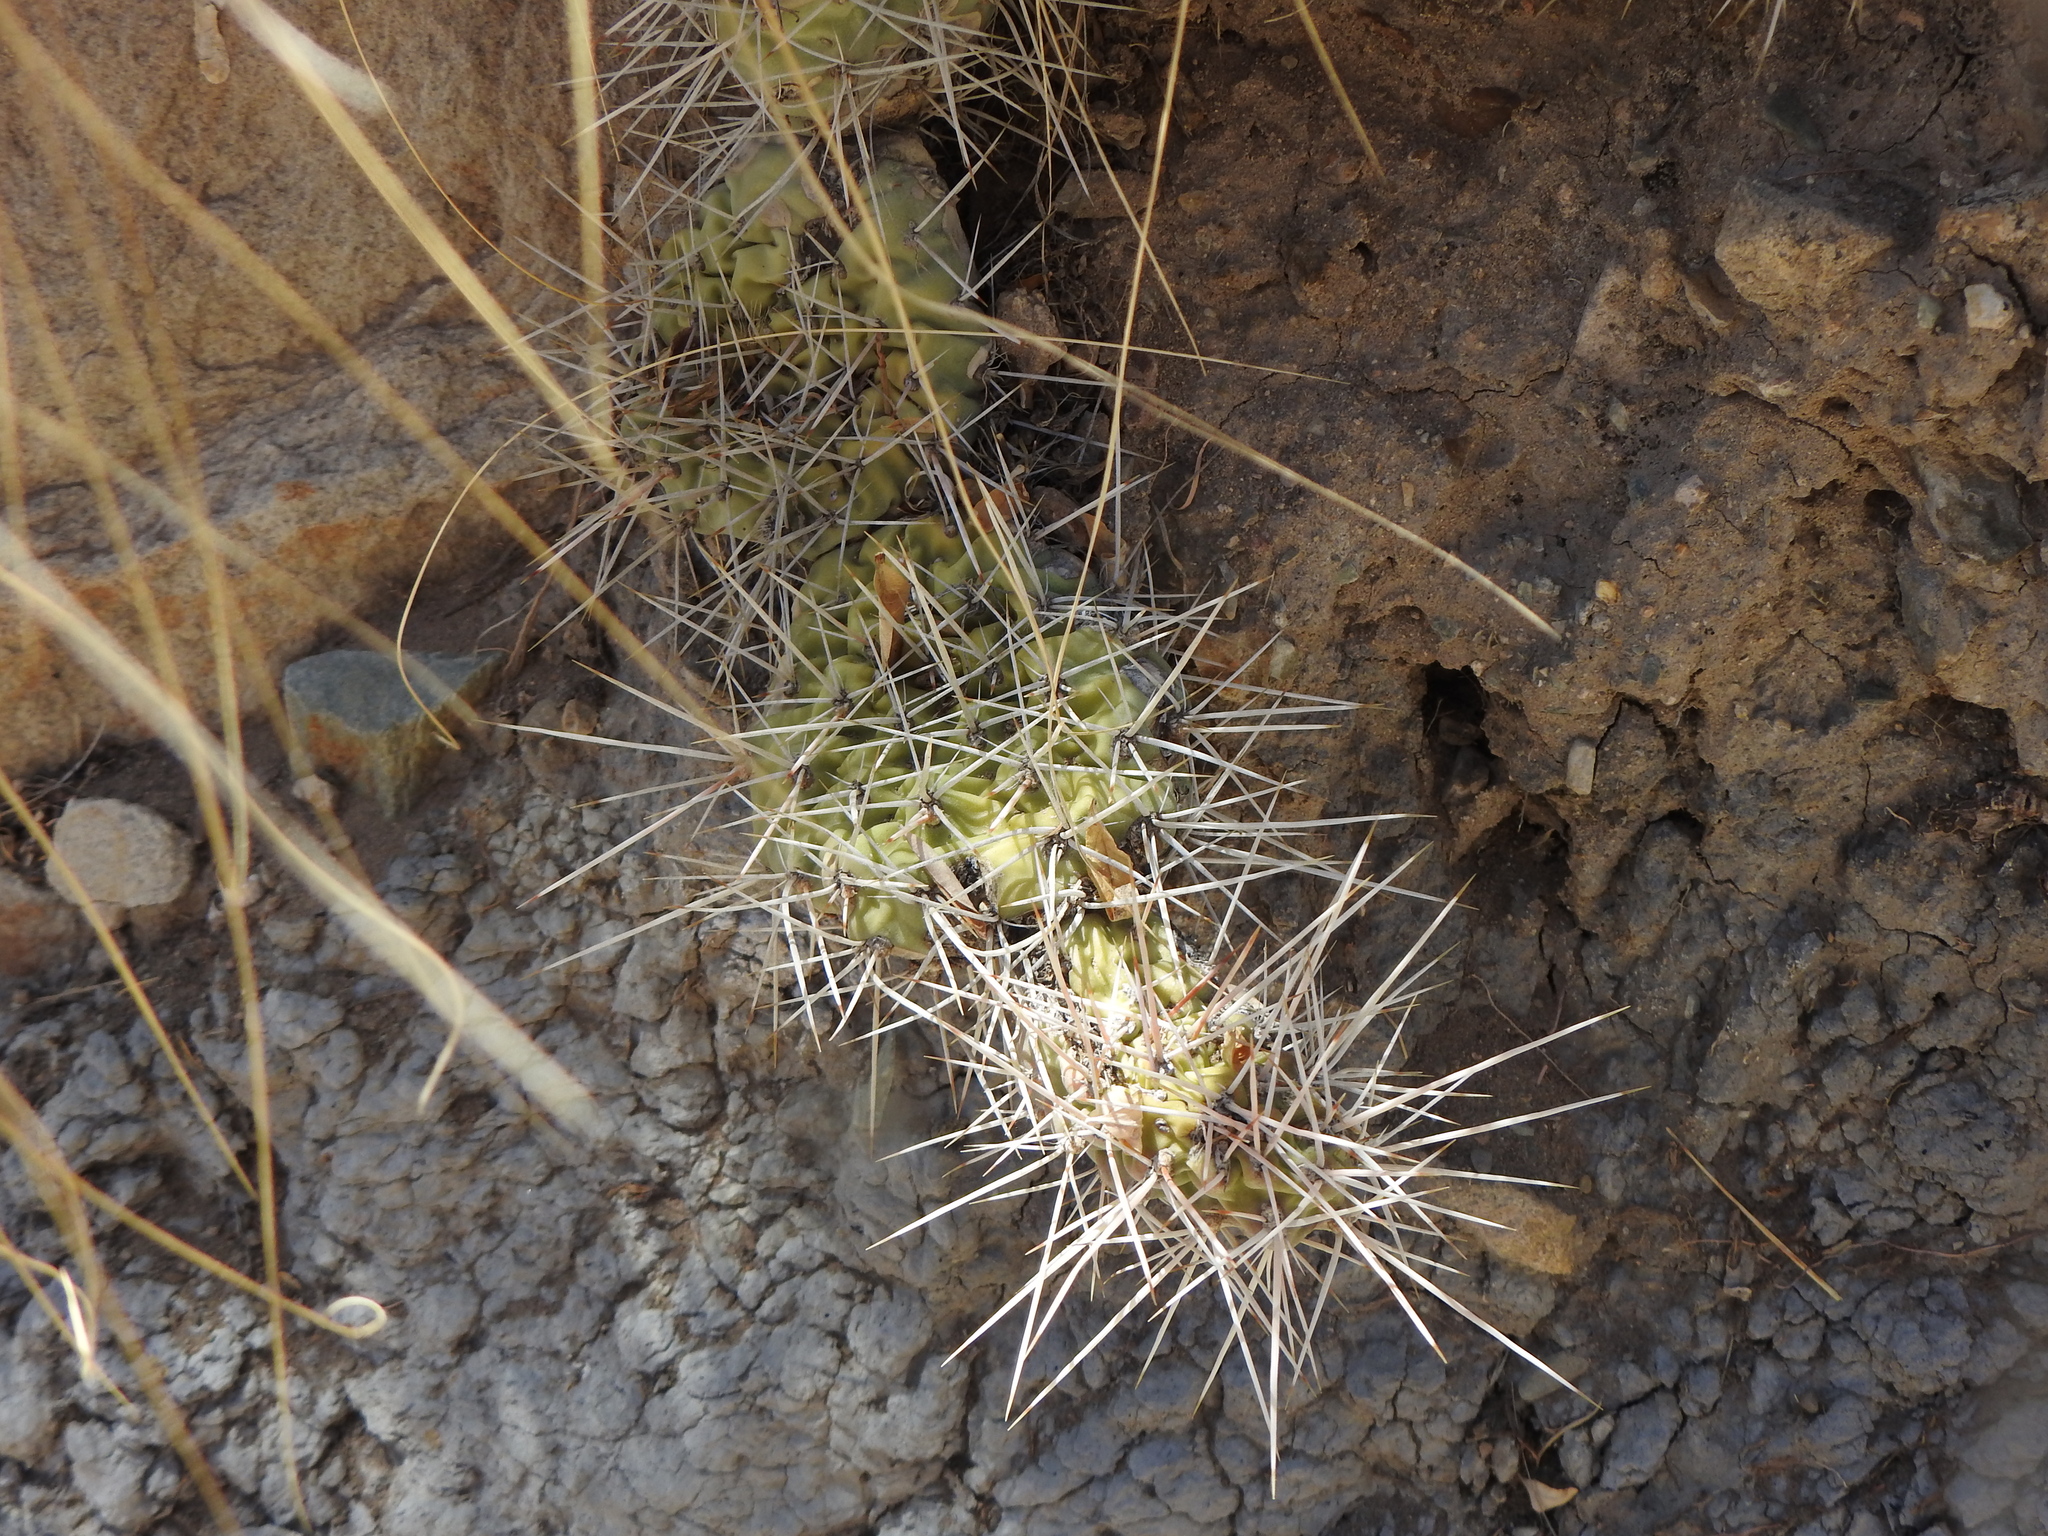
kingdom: Plantae
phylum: Tracheophyta
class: Magnoliopsida
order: Caryophyllales
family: Cactaceae
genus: Opuntia
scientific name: Opuntia sulphurea
